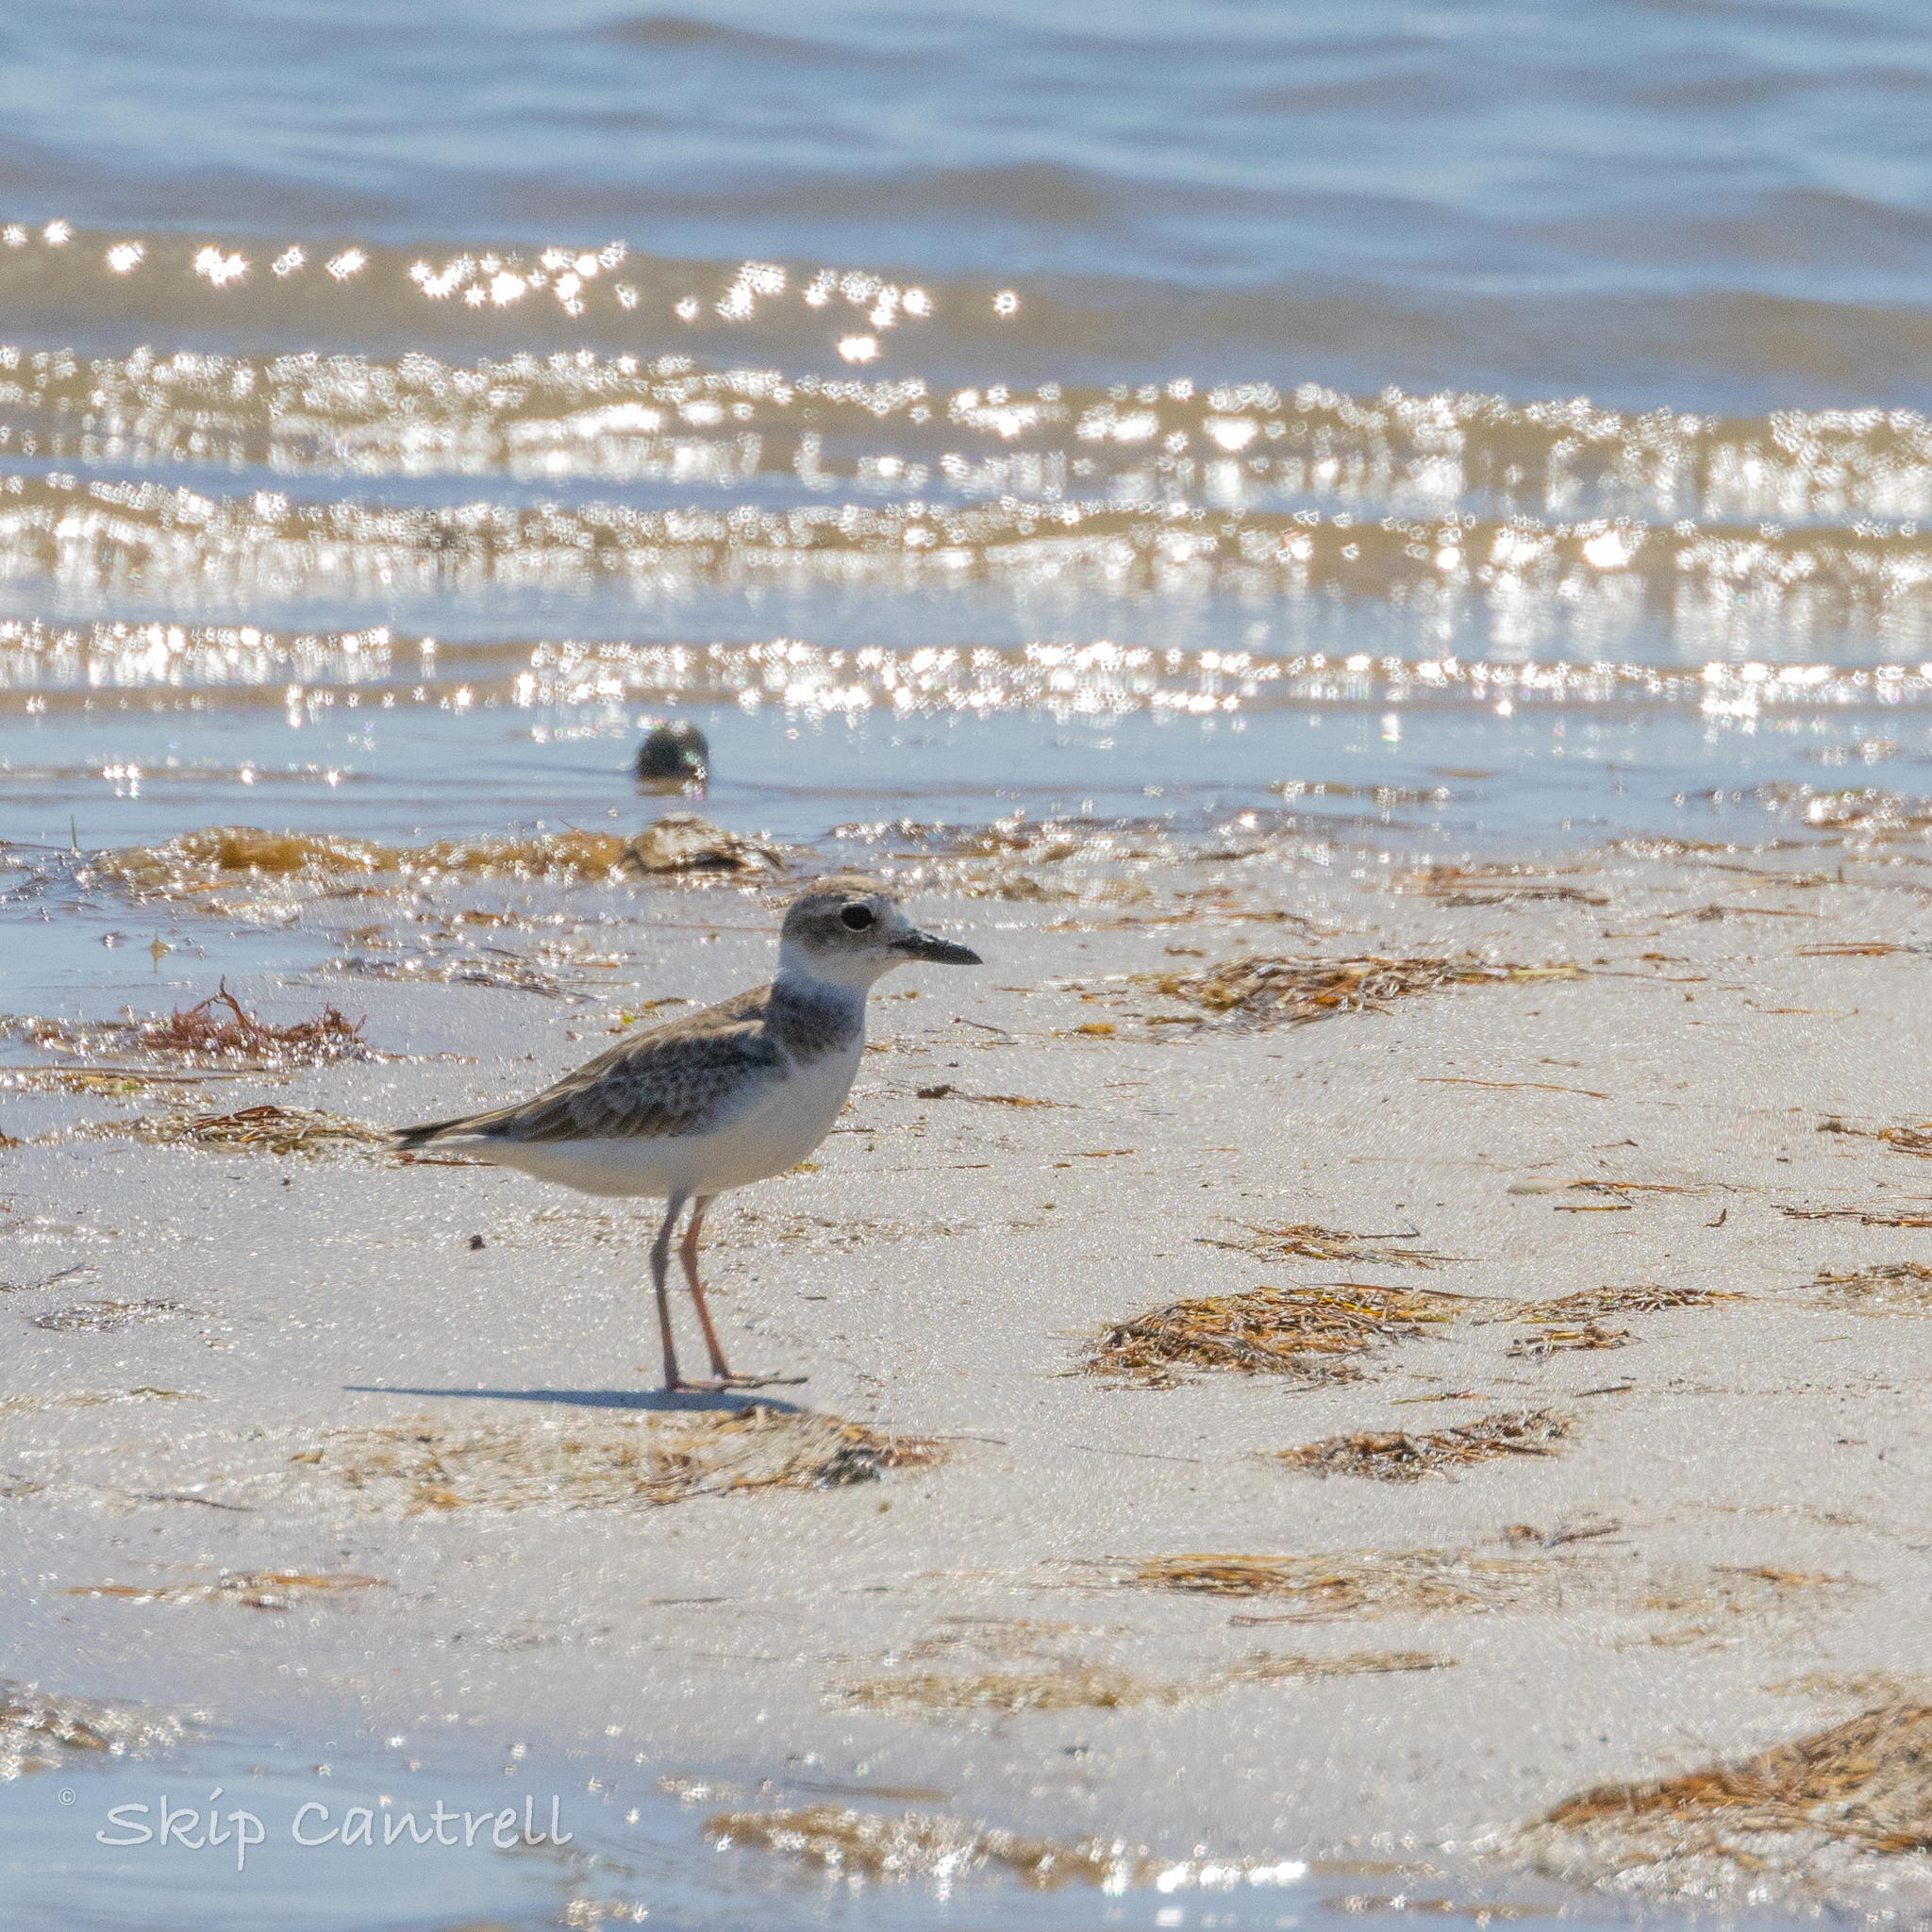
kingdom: Animalia
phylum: Chordata
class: Aves
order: Charadriiformes
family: Charadriidae
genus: Anarhynchus
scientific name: Anarhynchus
